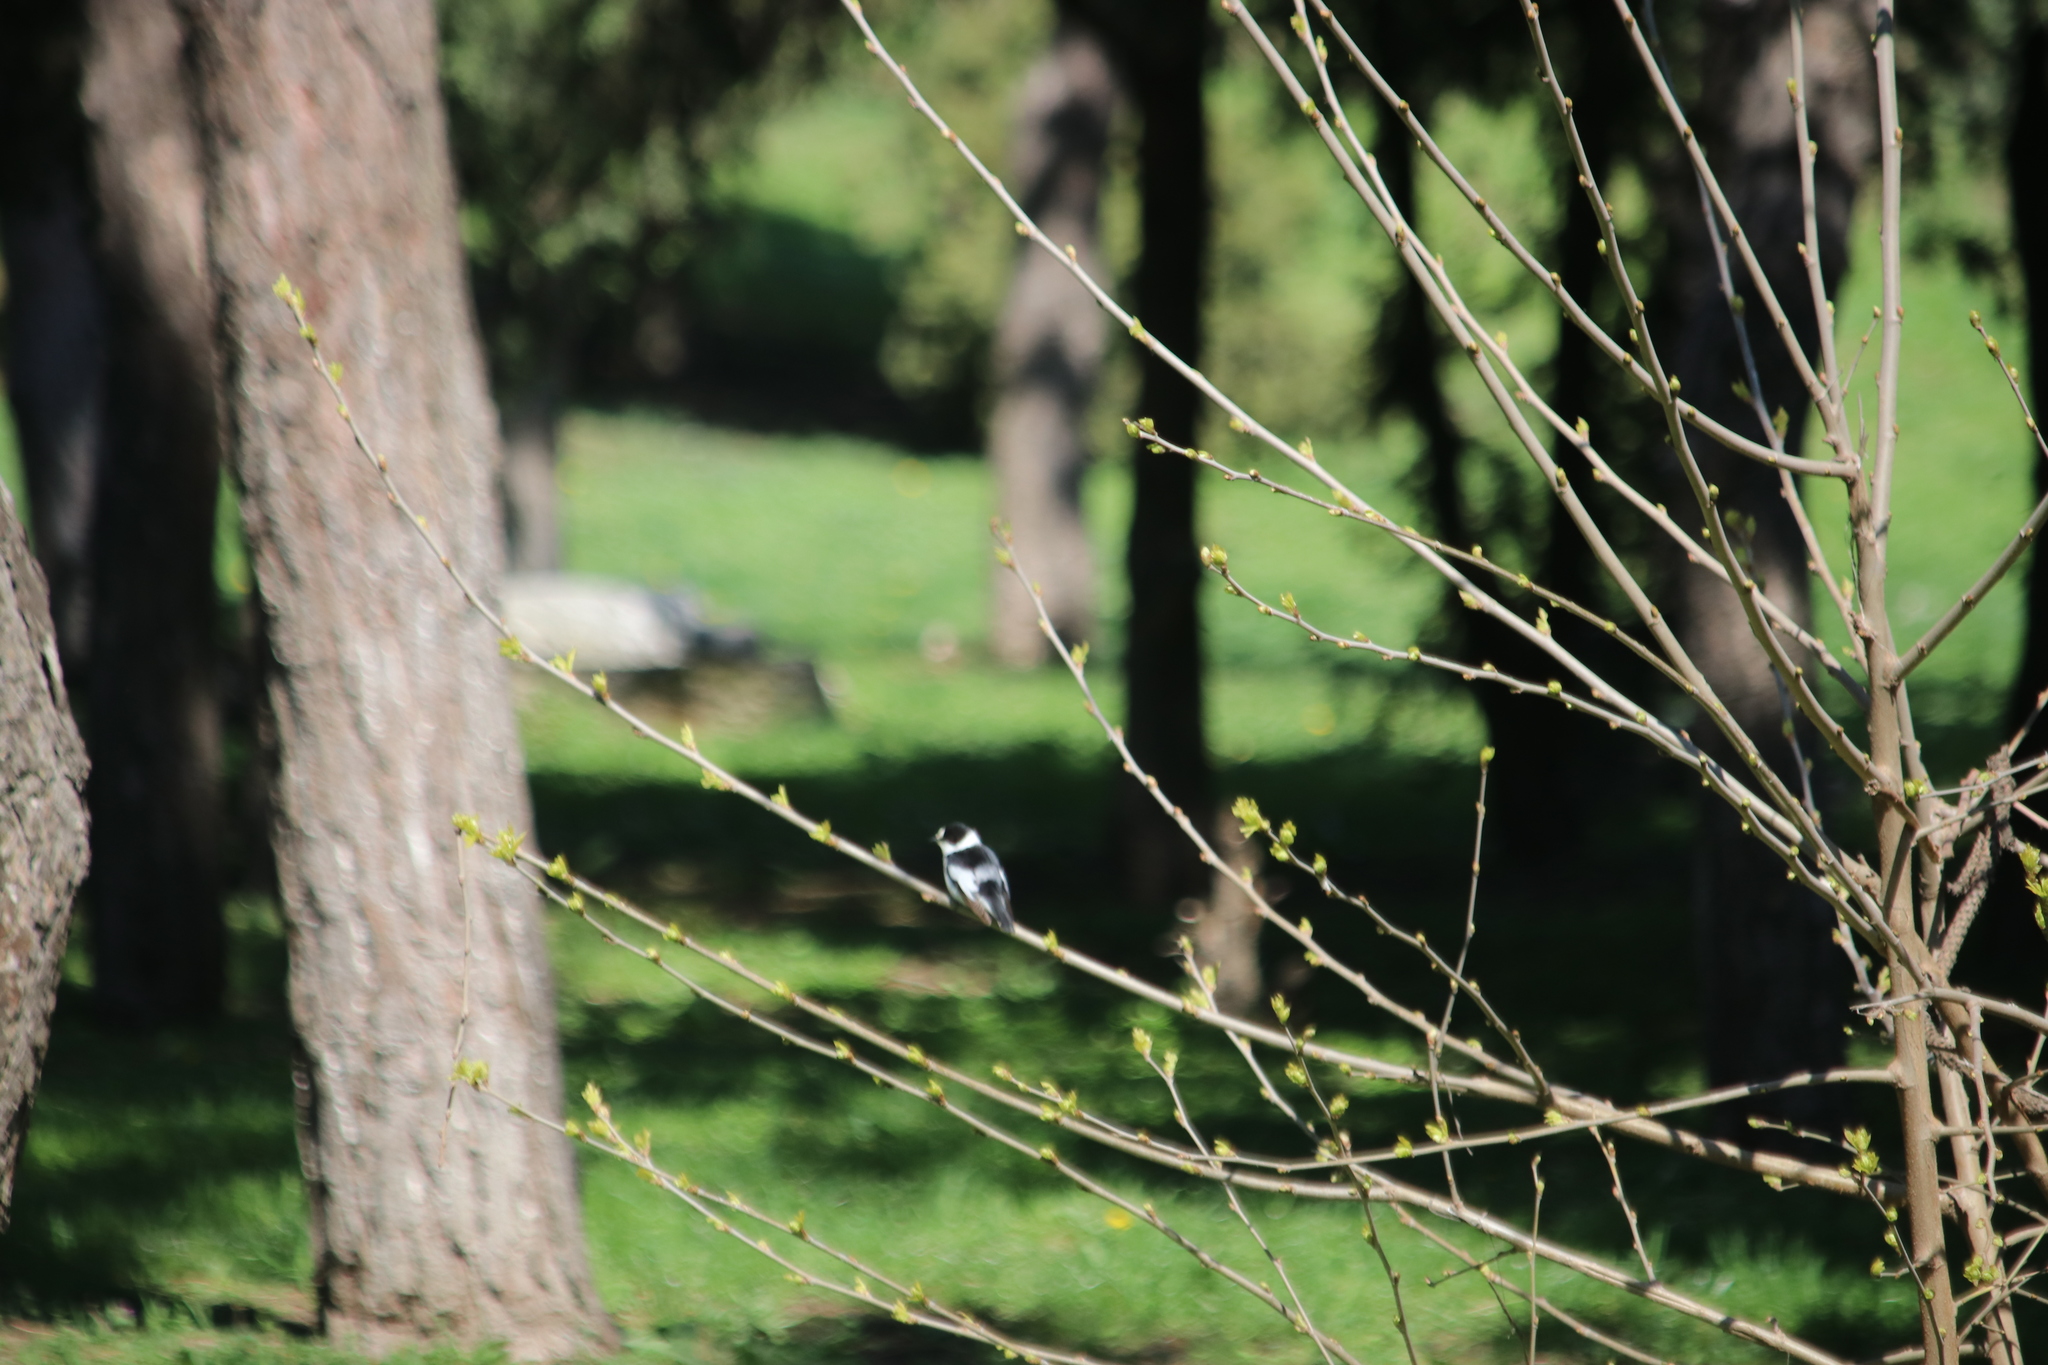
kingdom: Animalia
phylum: Chordata
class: Aves
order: Passeriformes
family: Muscicapidae
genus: Ficedula
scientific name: Ficedula albicollis
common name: Collared flycatcher
